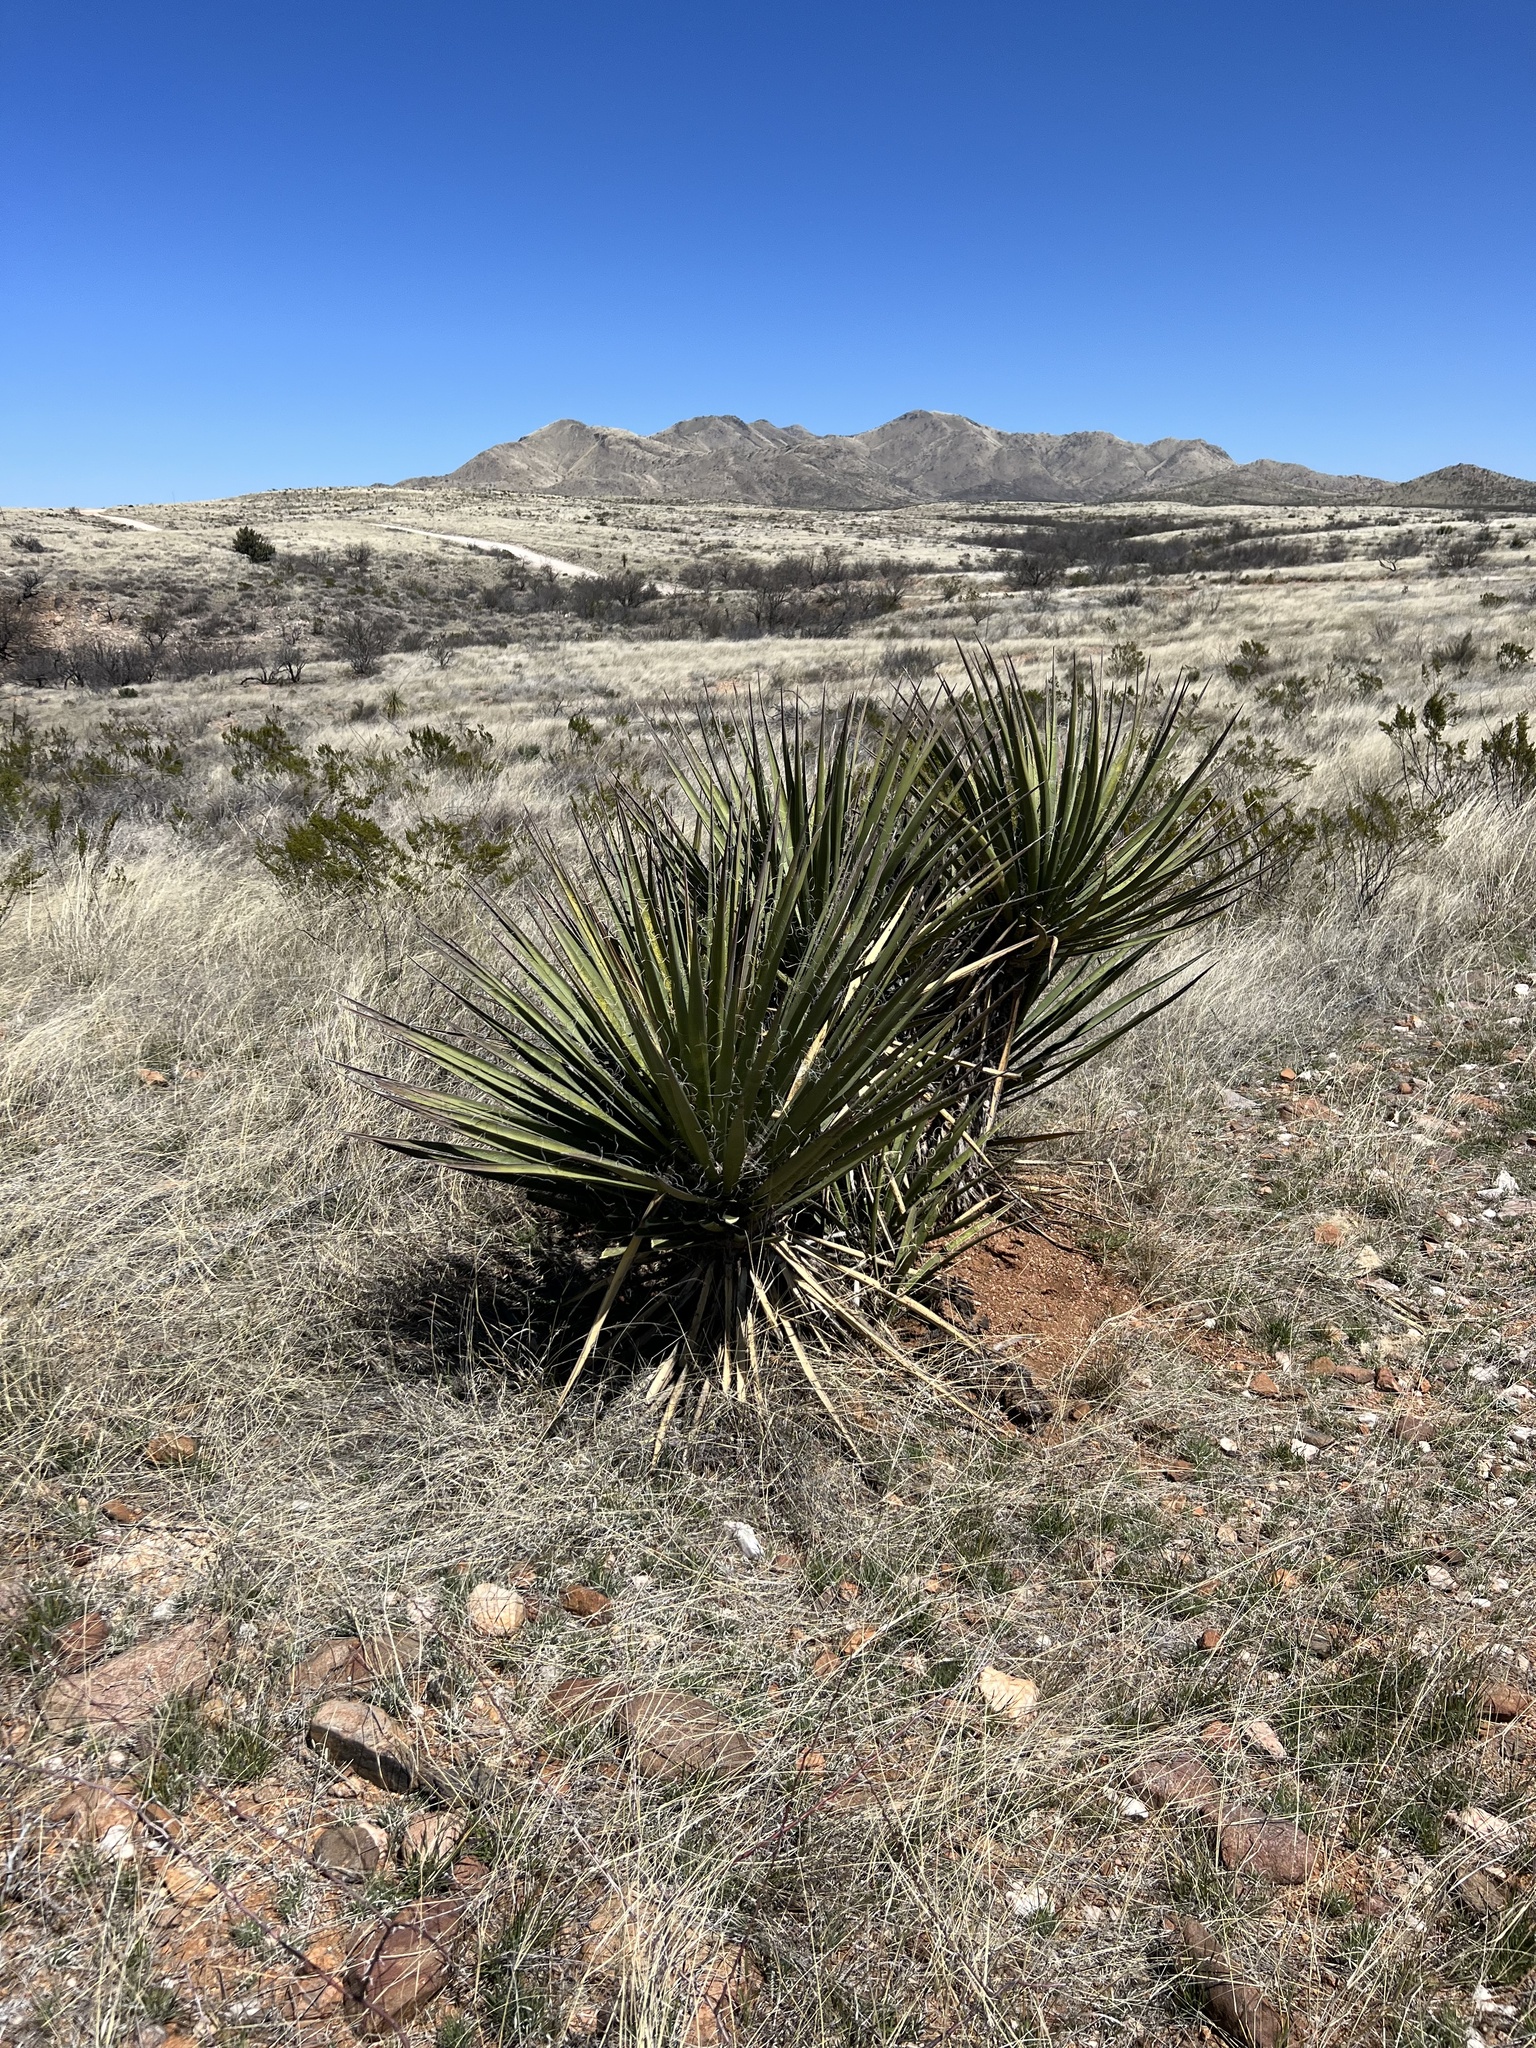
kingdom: Plantae
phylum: Tracheophyta
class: Liliopsida
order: Asparagales
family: Asparagaceae
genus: Yucca
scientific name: Yucca baccata
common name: Banana yucca
